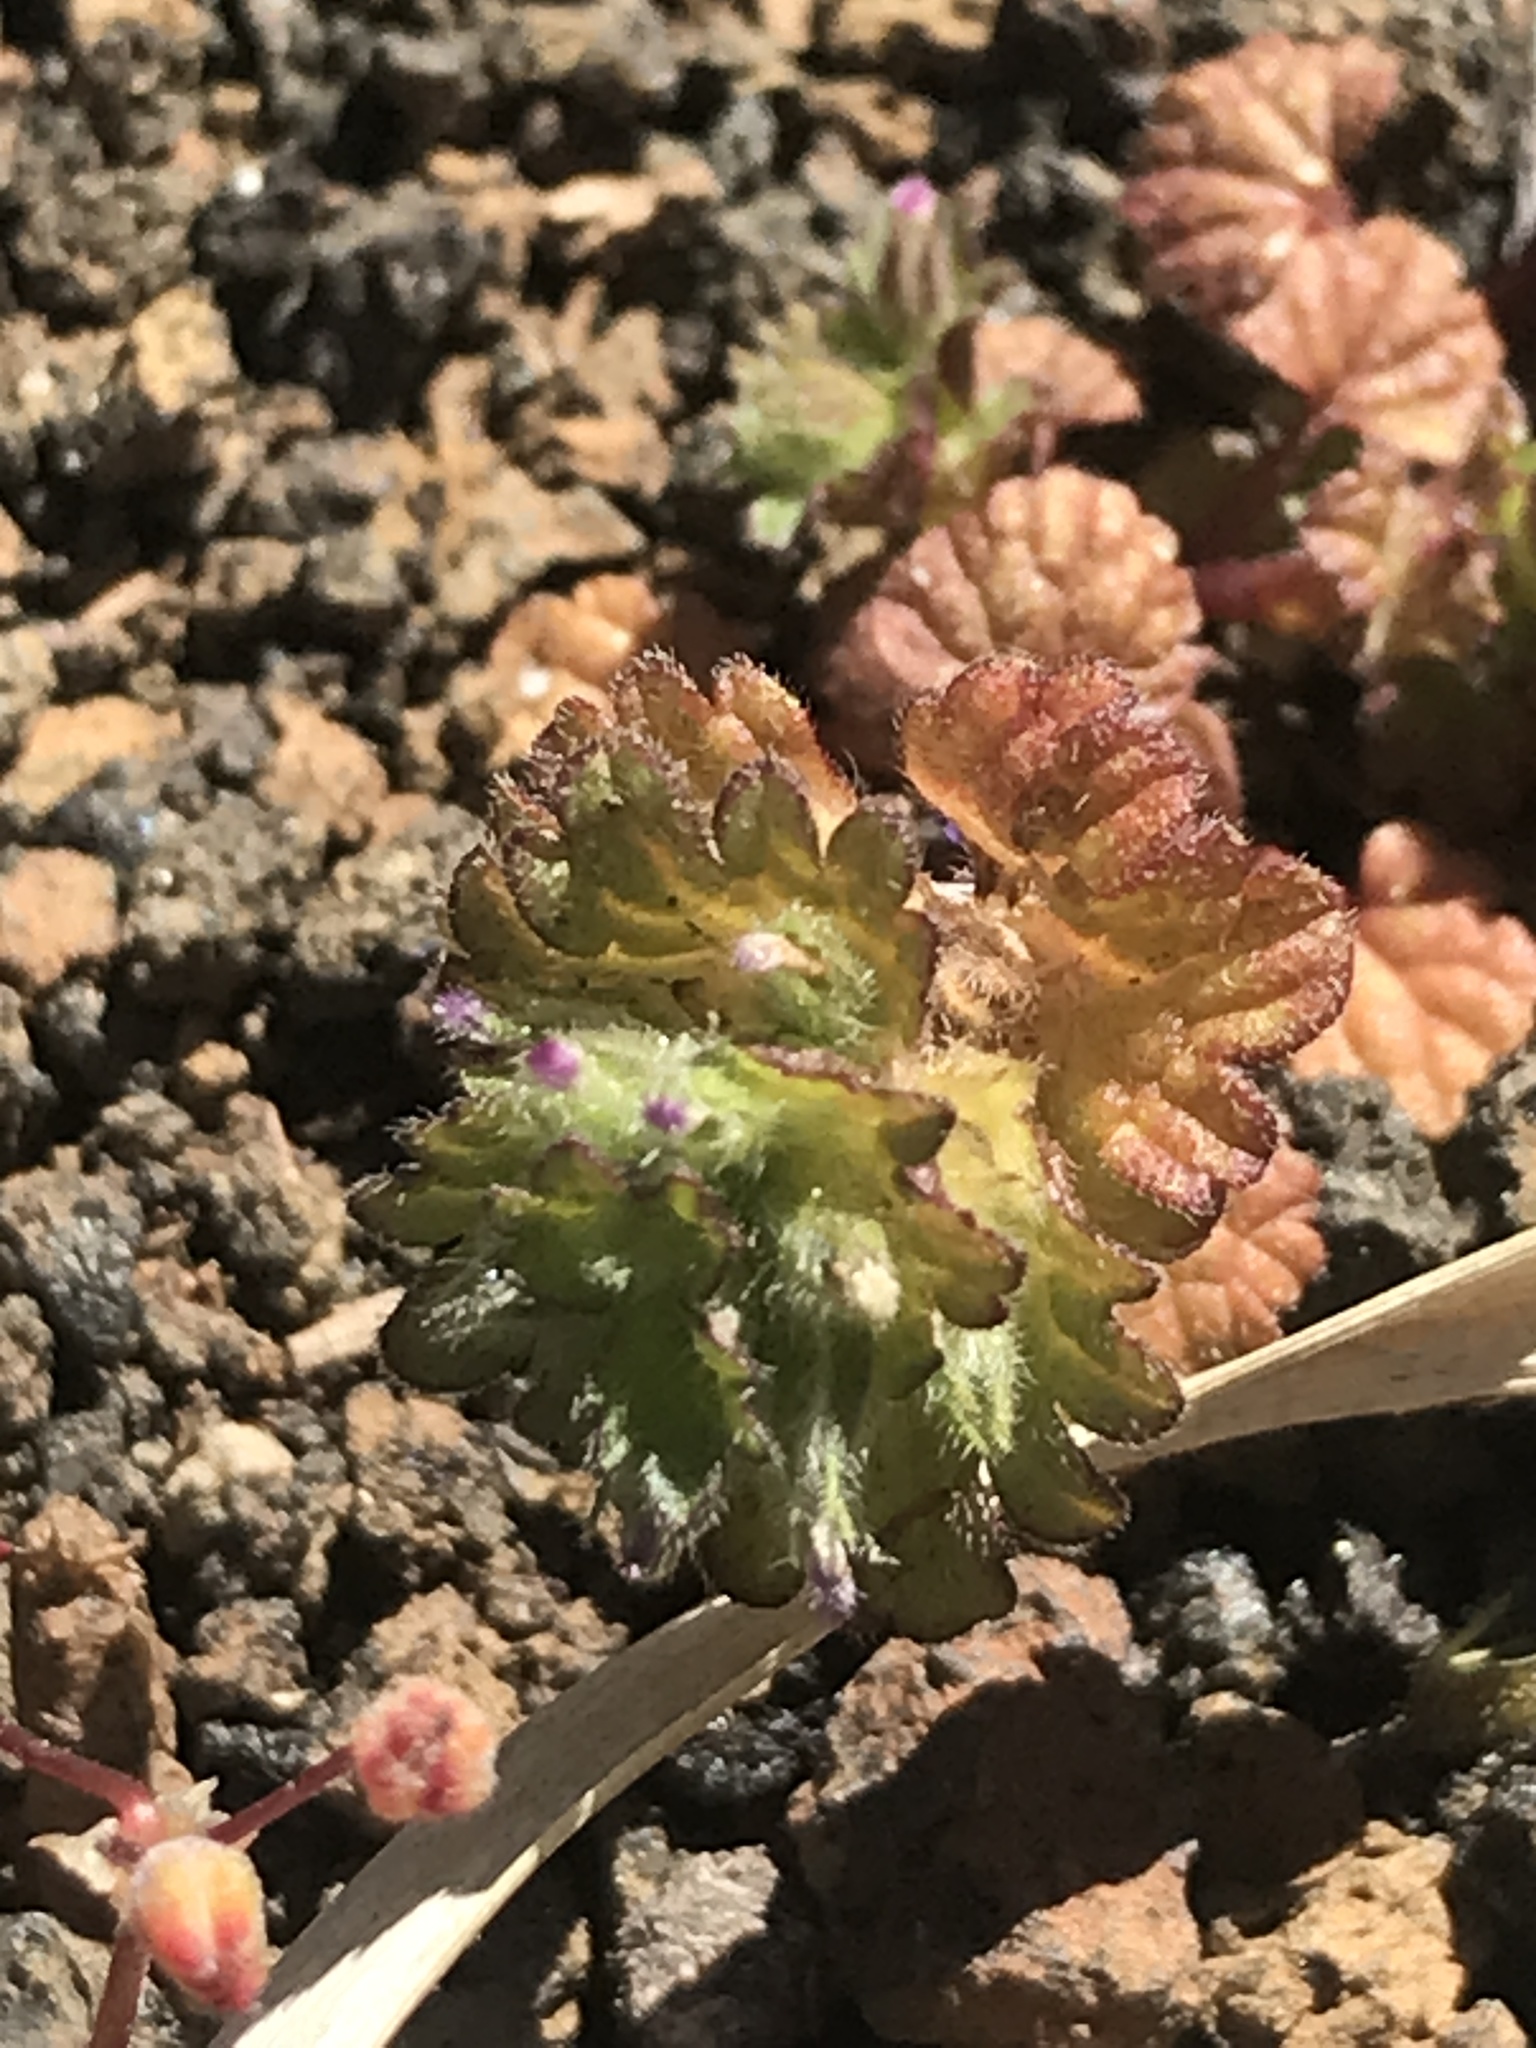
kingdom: Plantae
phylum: Tracheophyta
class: Magnoliopsida
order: Lamiales
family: Lamiaceae
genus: Lamium
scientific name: Lamium amplexicaule
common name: Henbit dead-nettle
